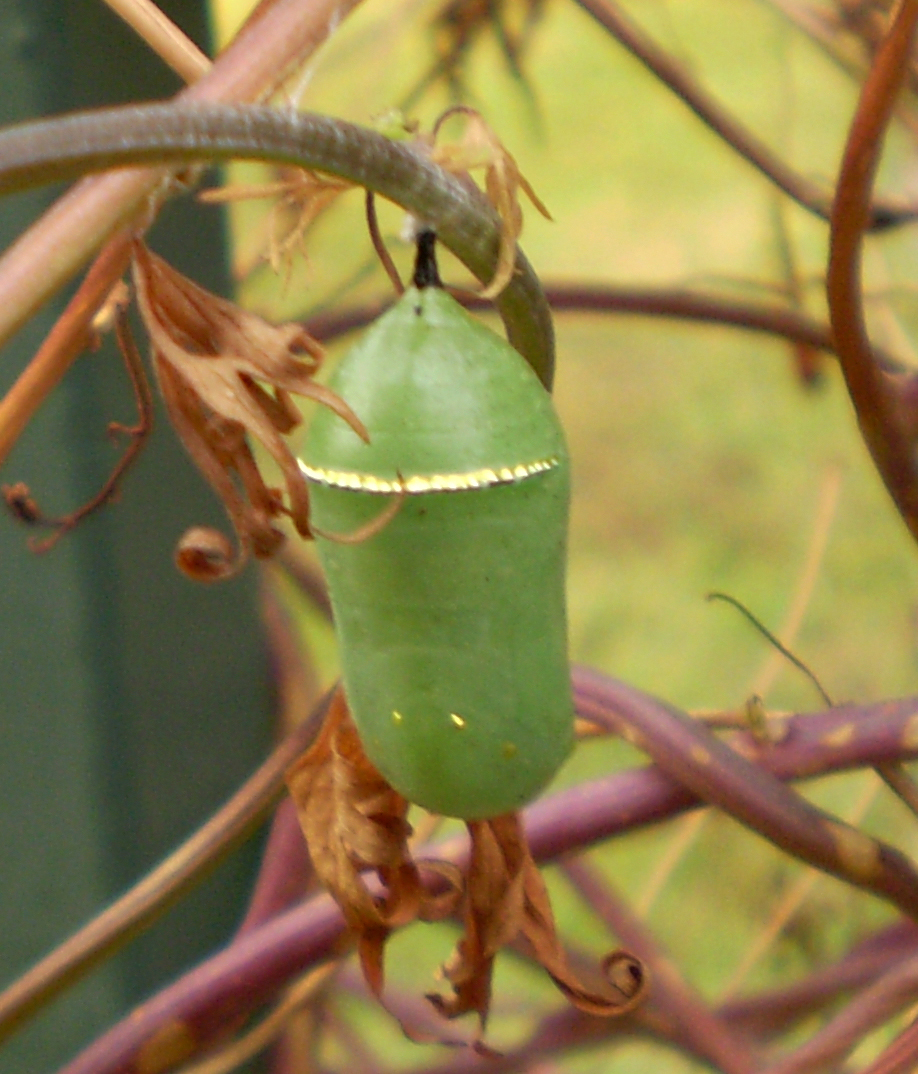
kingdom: Animalia
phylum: Arthropoda
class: Insecta
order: Lepidoptera
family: Nymphalidae
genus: Danaus
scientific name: Danaus plexippus
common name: Monarch
